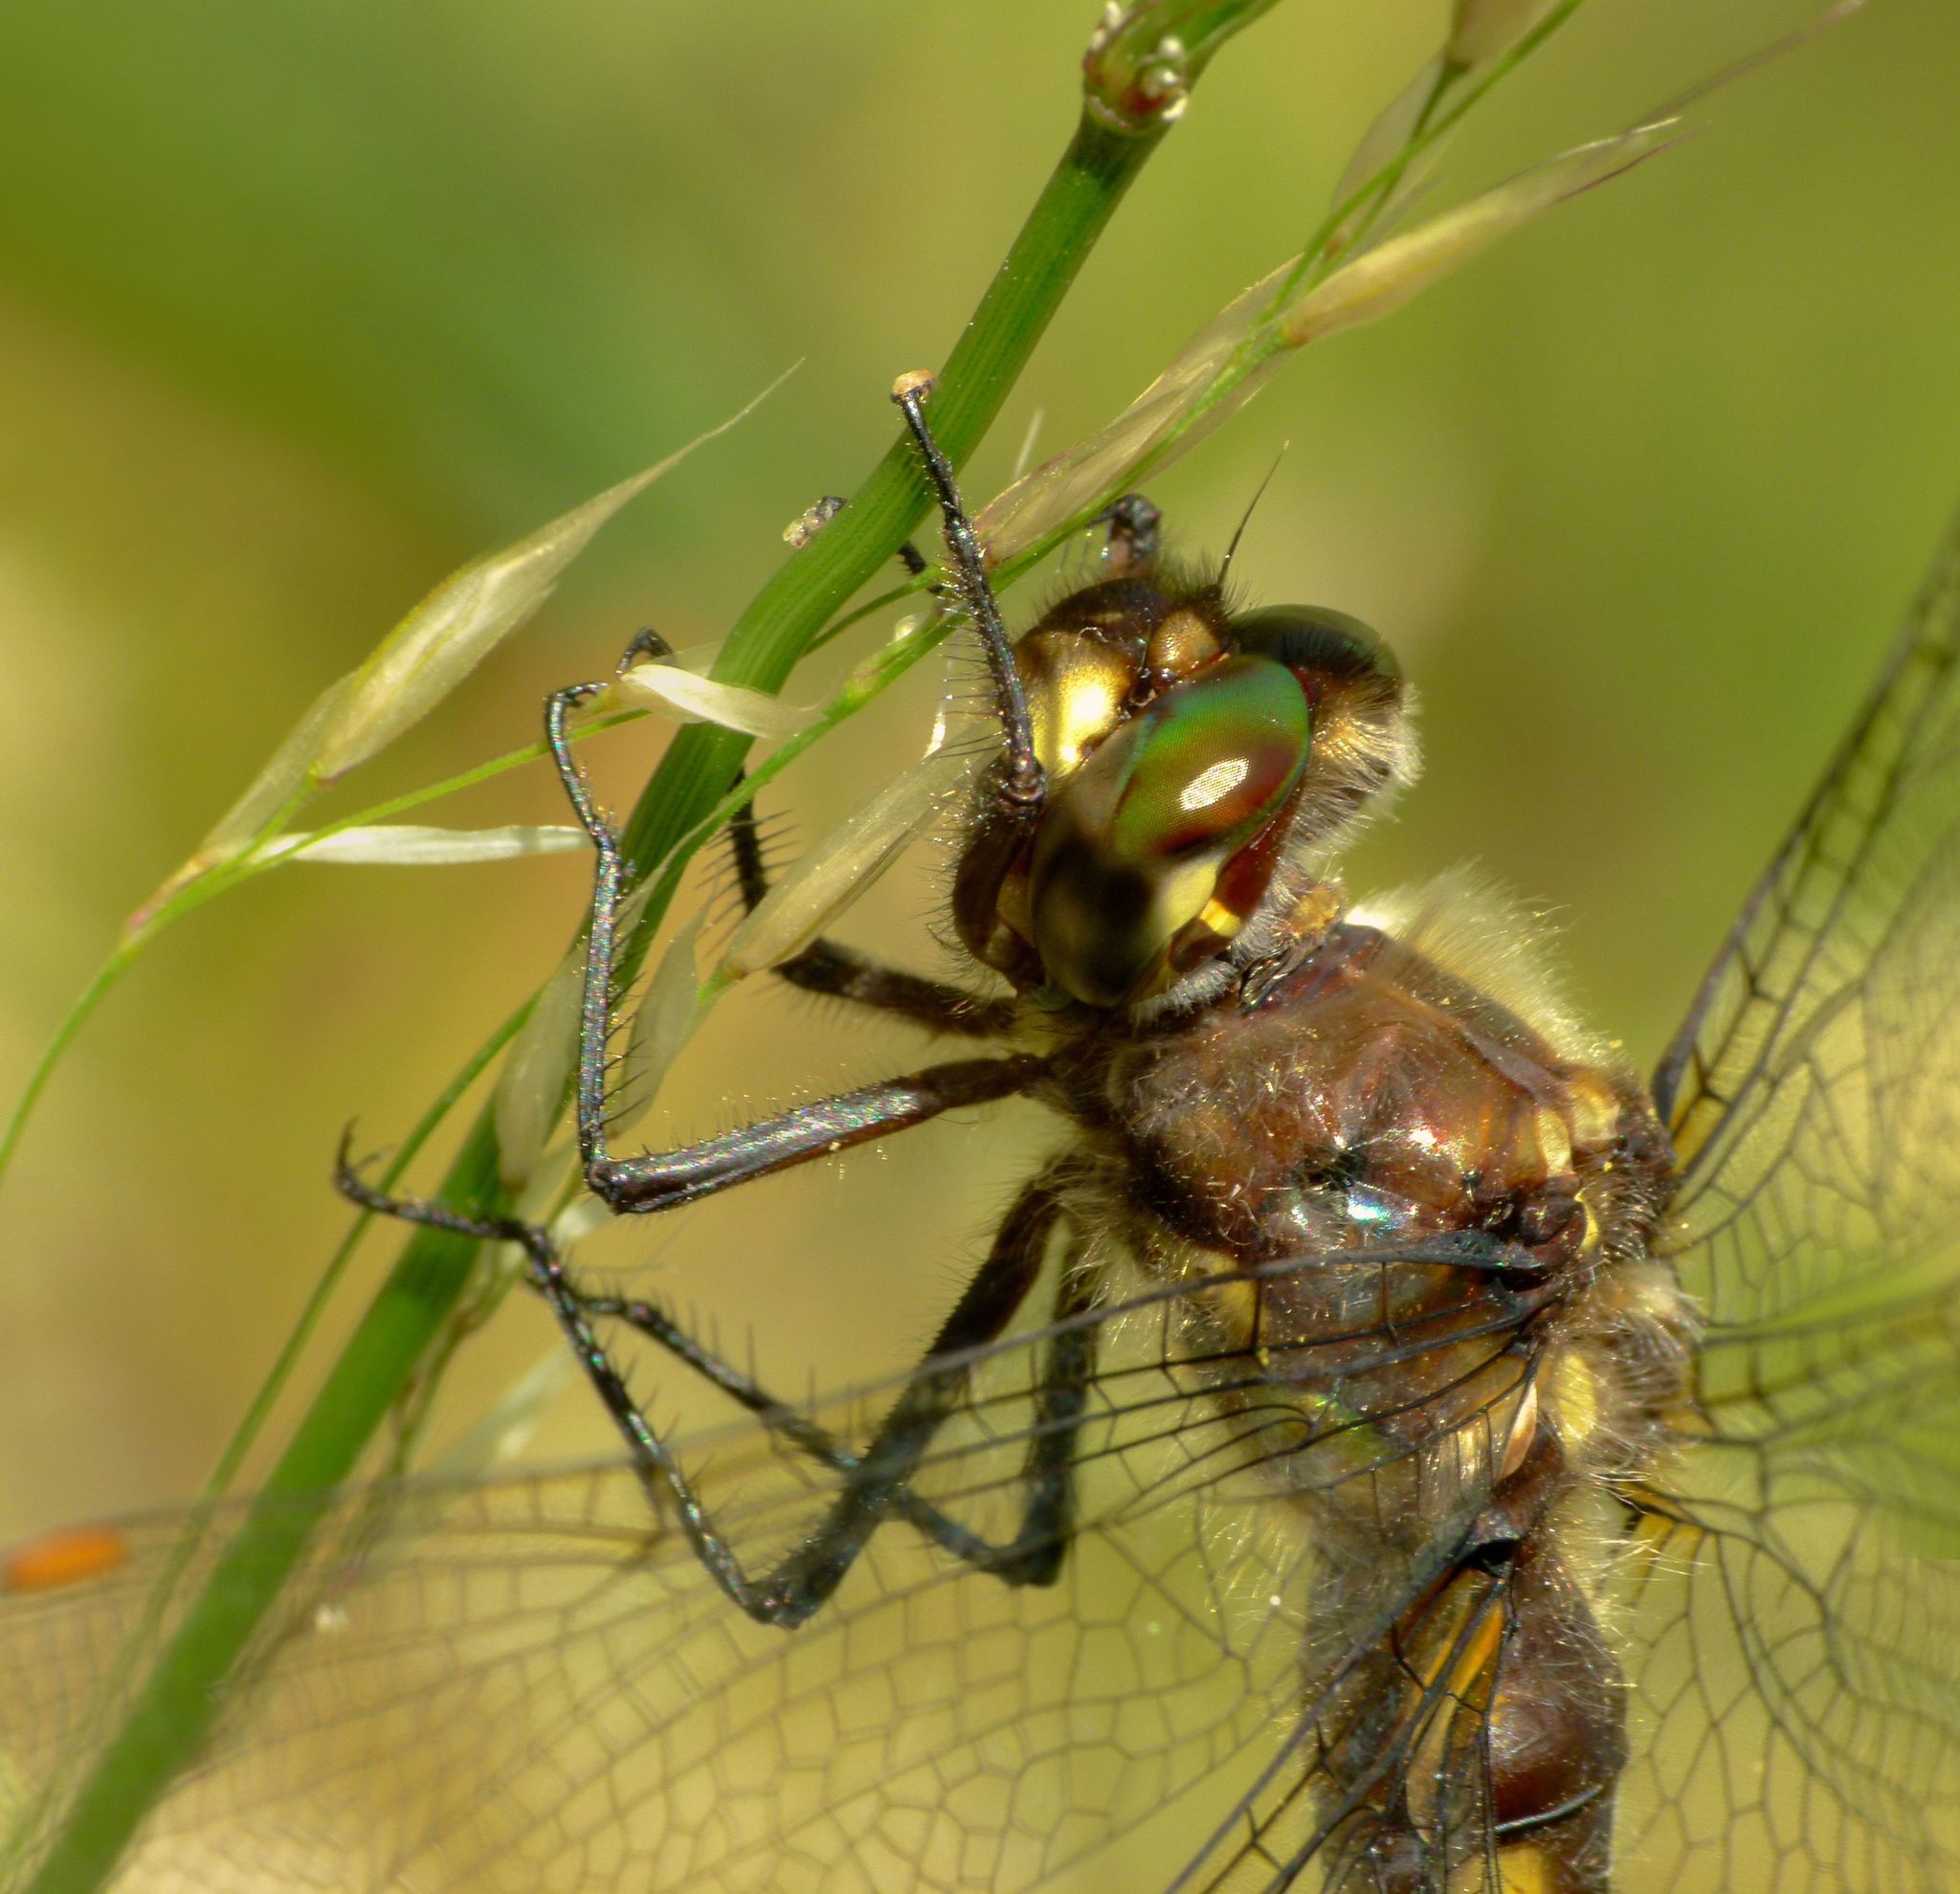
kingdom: Animalia
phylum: Arthropoda
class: Insecta
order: Odonata
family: Corduliidae
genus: Procordulia
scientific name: Procordulia grayi
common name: Yellow spotted dragonfly
